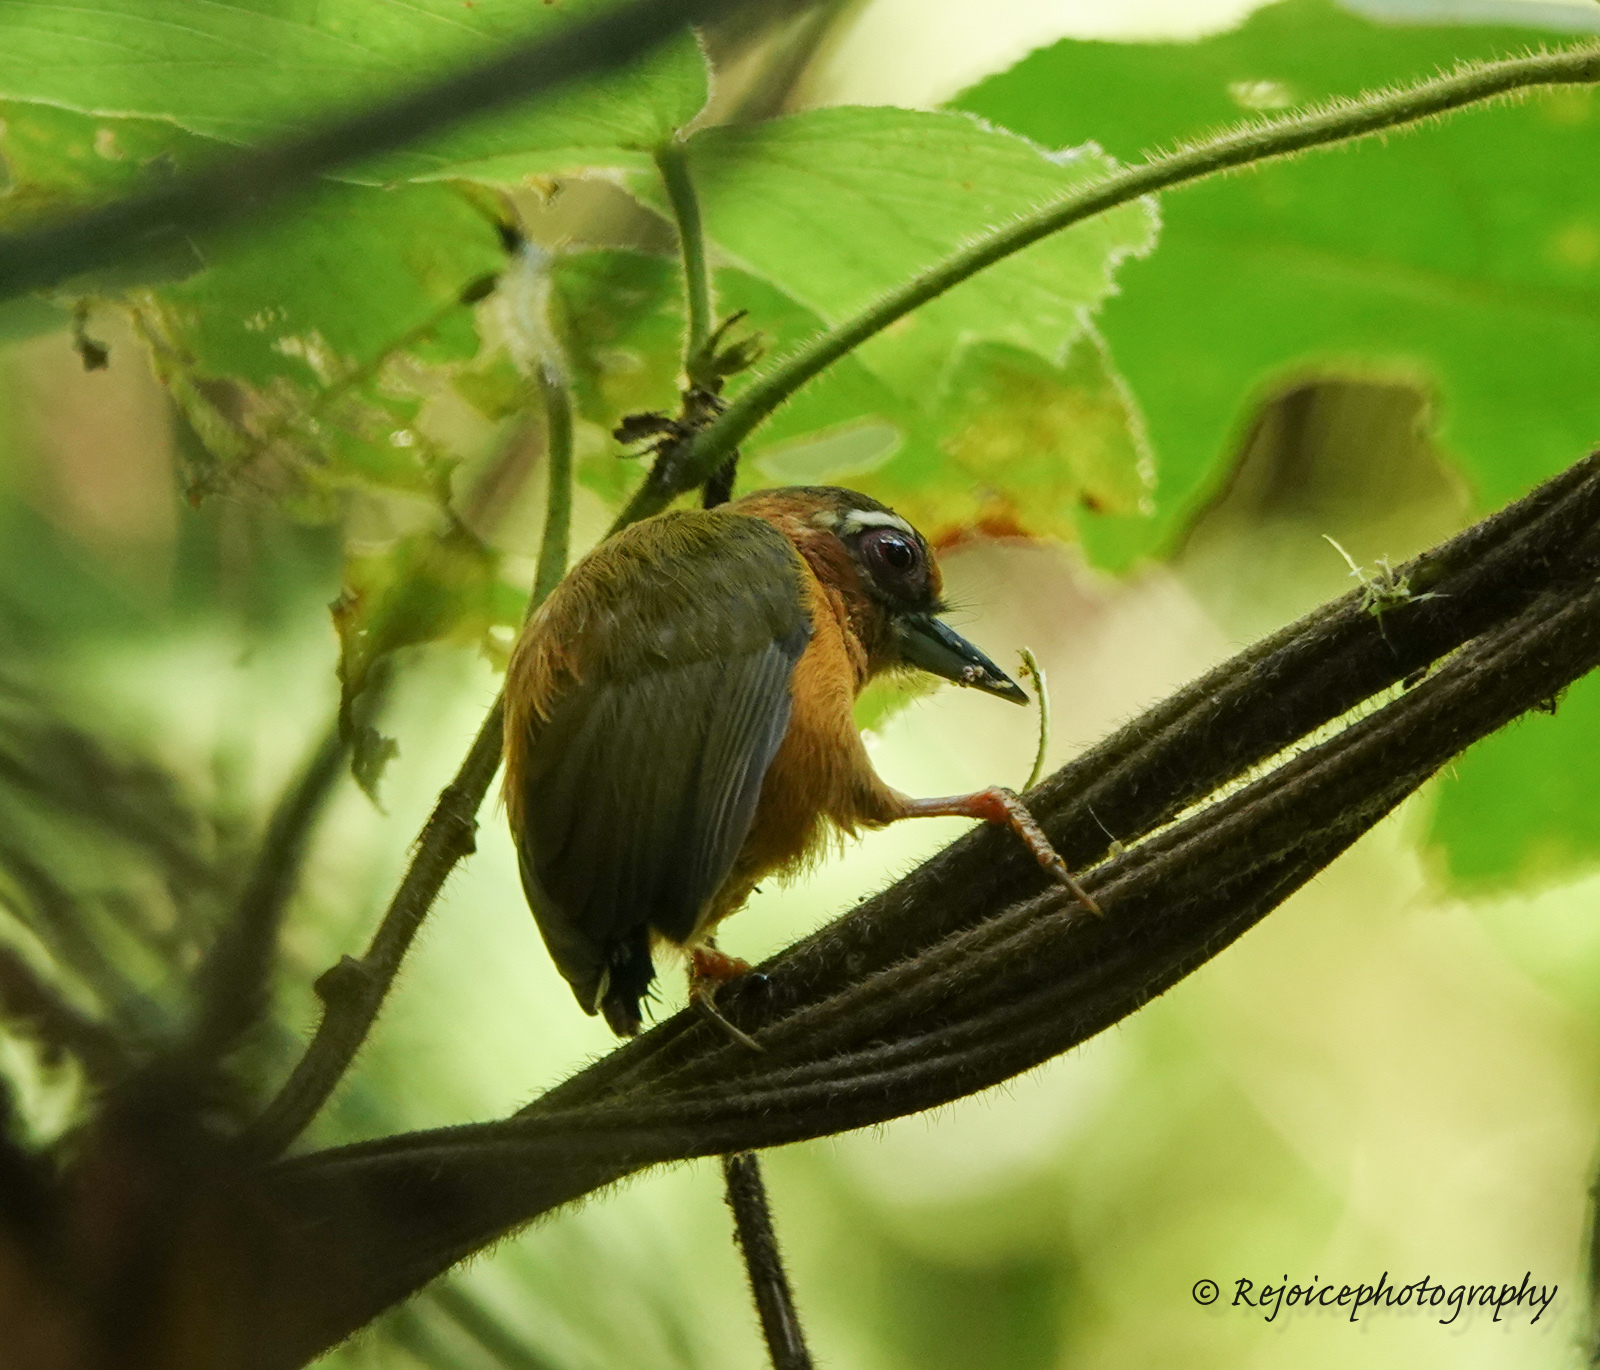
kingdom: Animalia
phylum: Chordata
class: Aves
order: Piciformes
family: Picidae
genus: Sasia
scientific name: Sasia ochracea
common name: White-browed piculet
